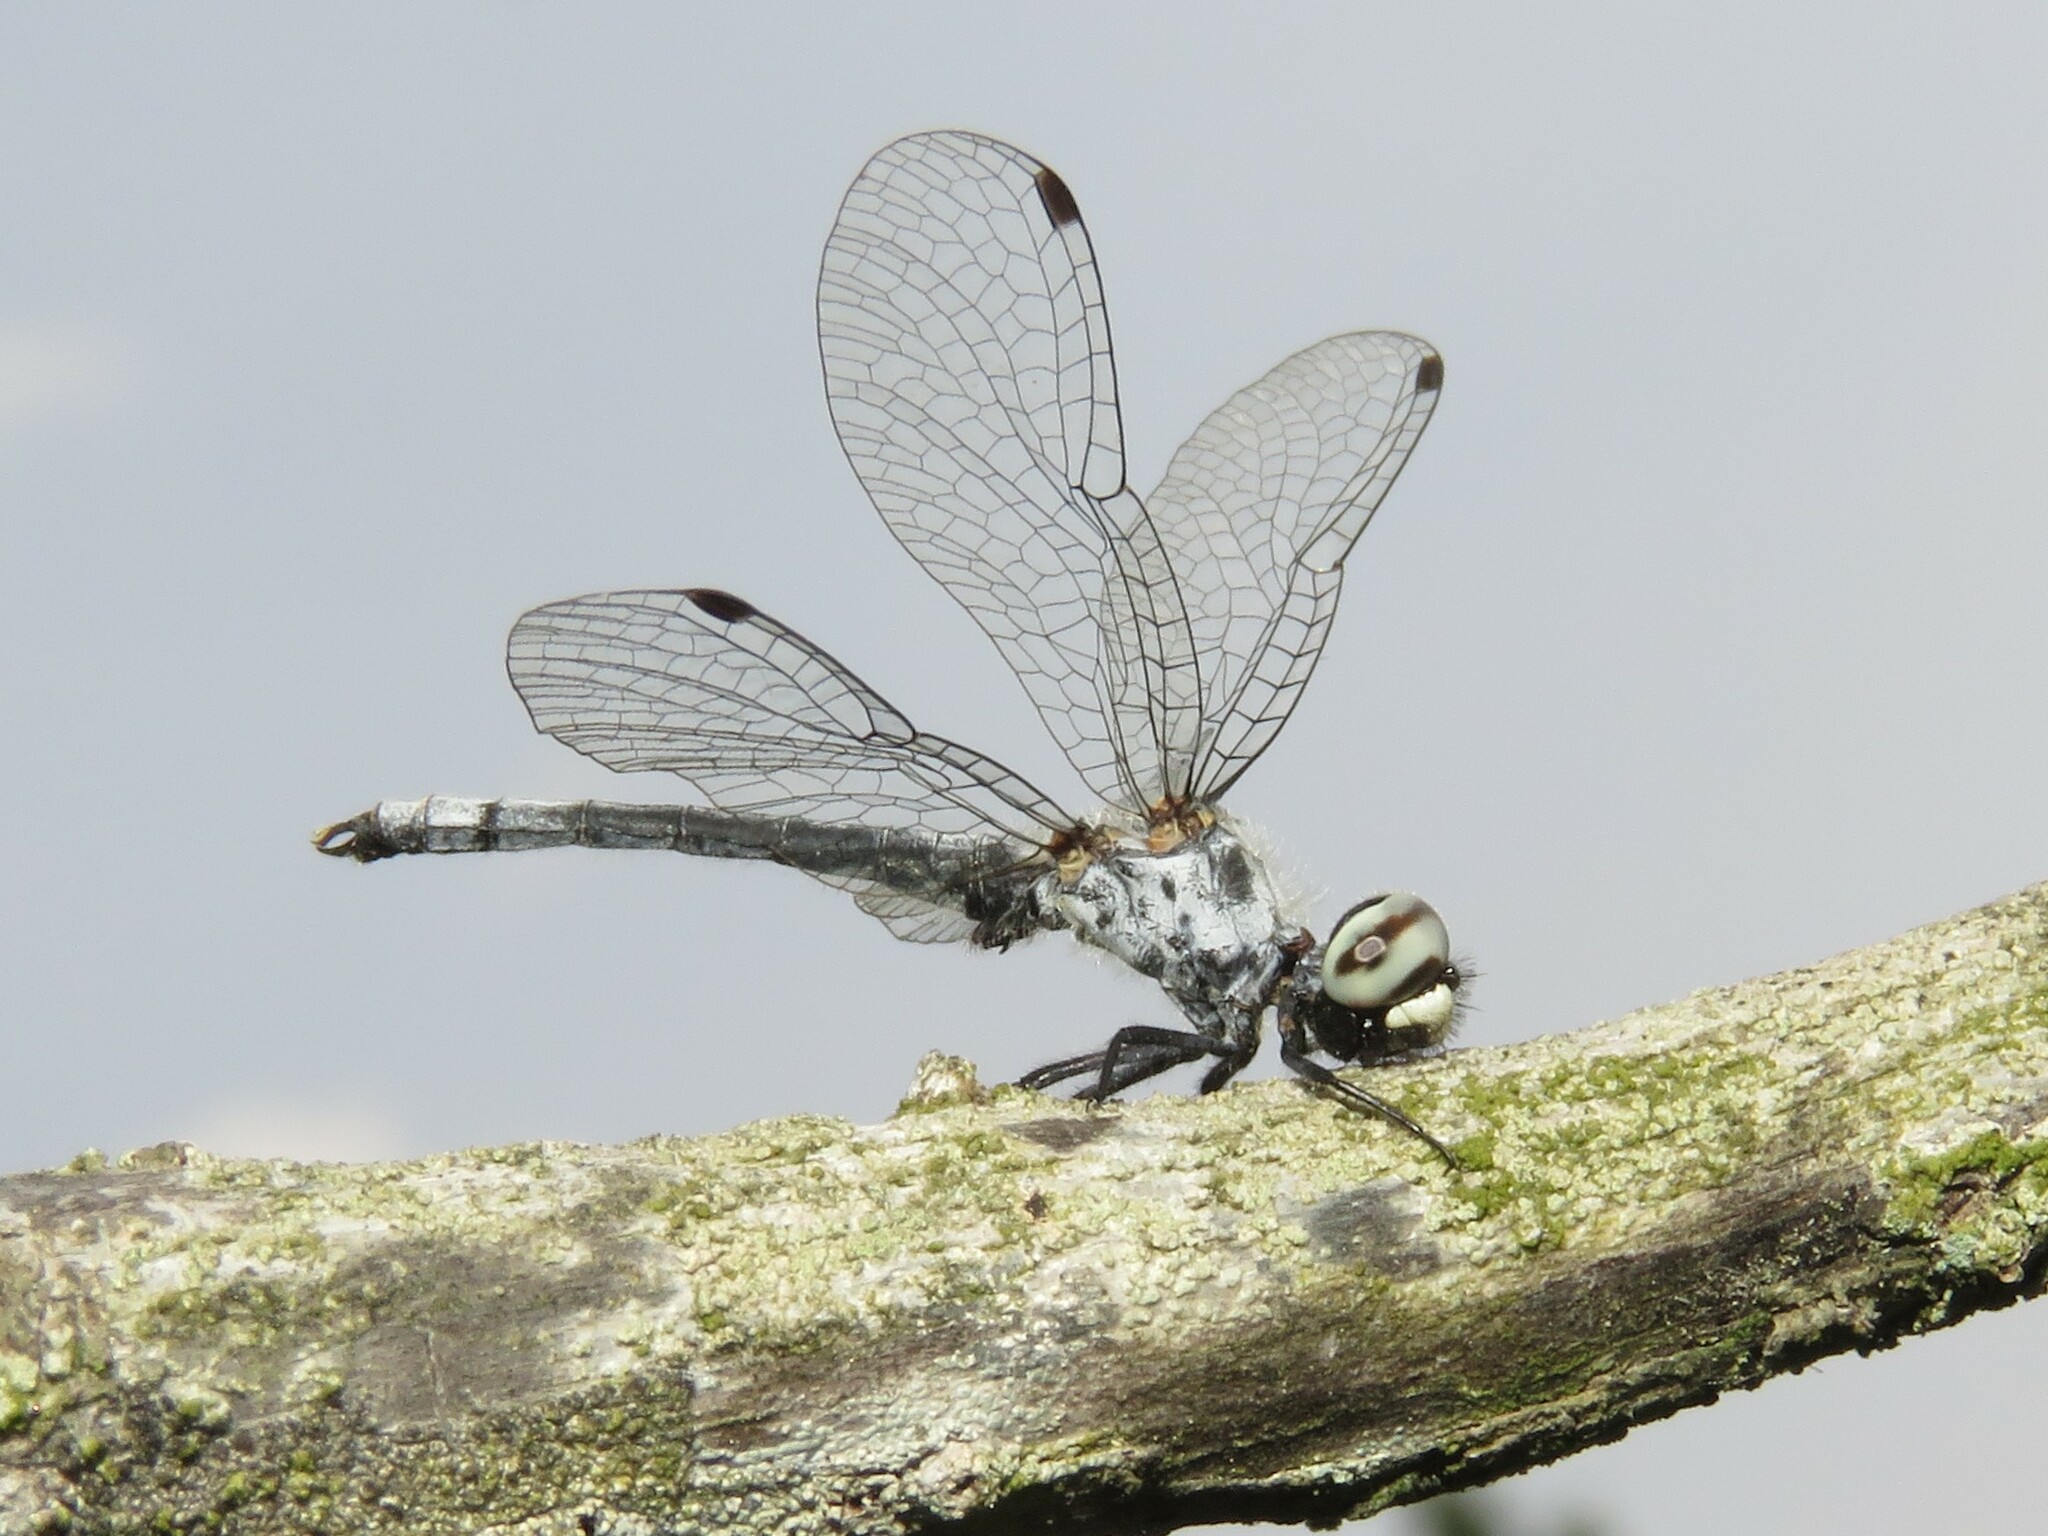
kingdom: Animalia
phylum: Arthropoda
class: Insecta
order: Odonata
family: Libellulidae
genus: Nannothemis
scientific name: Nannothemis bella
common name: Elfin skimmer
